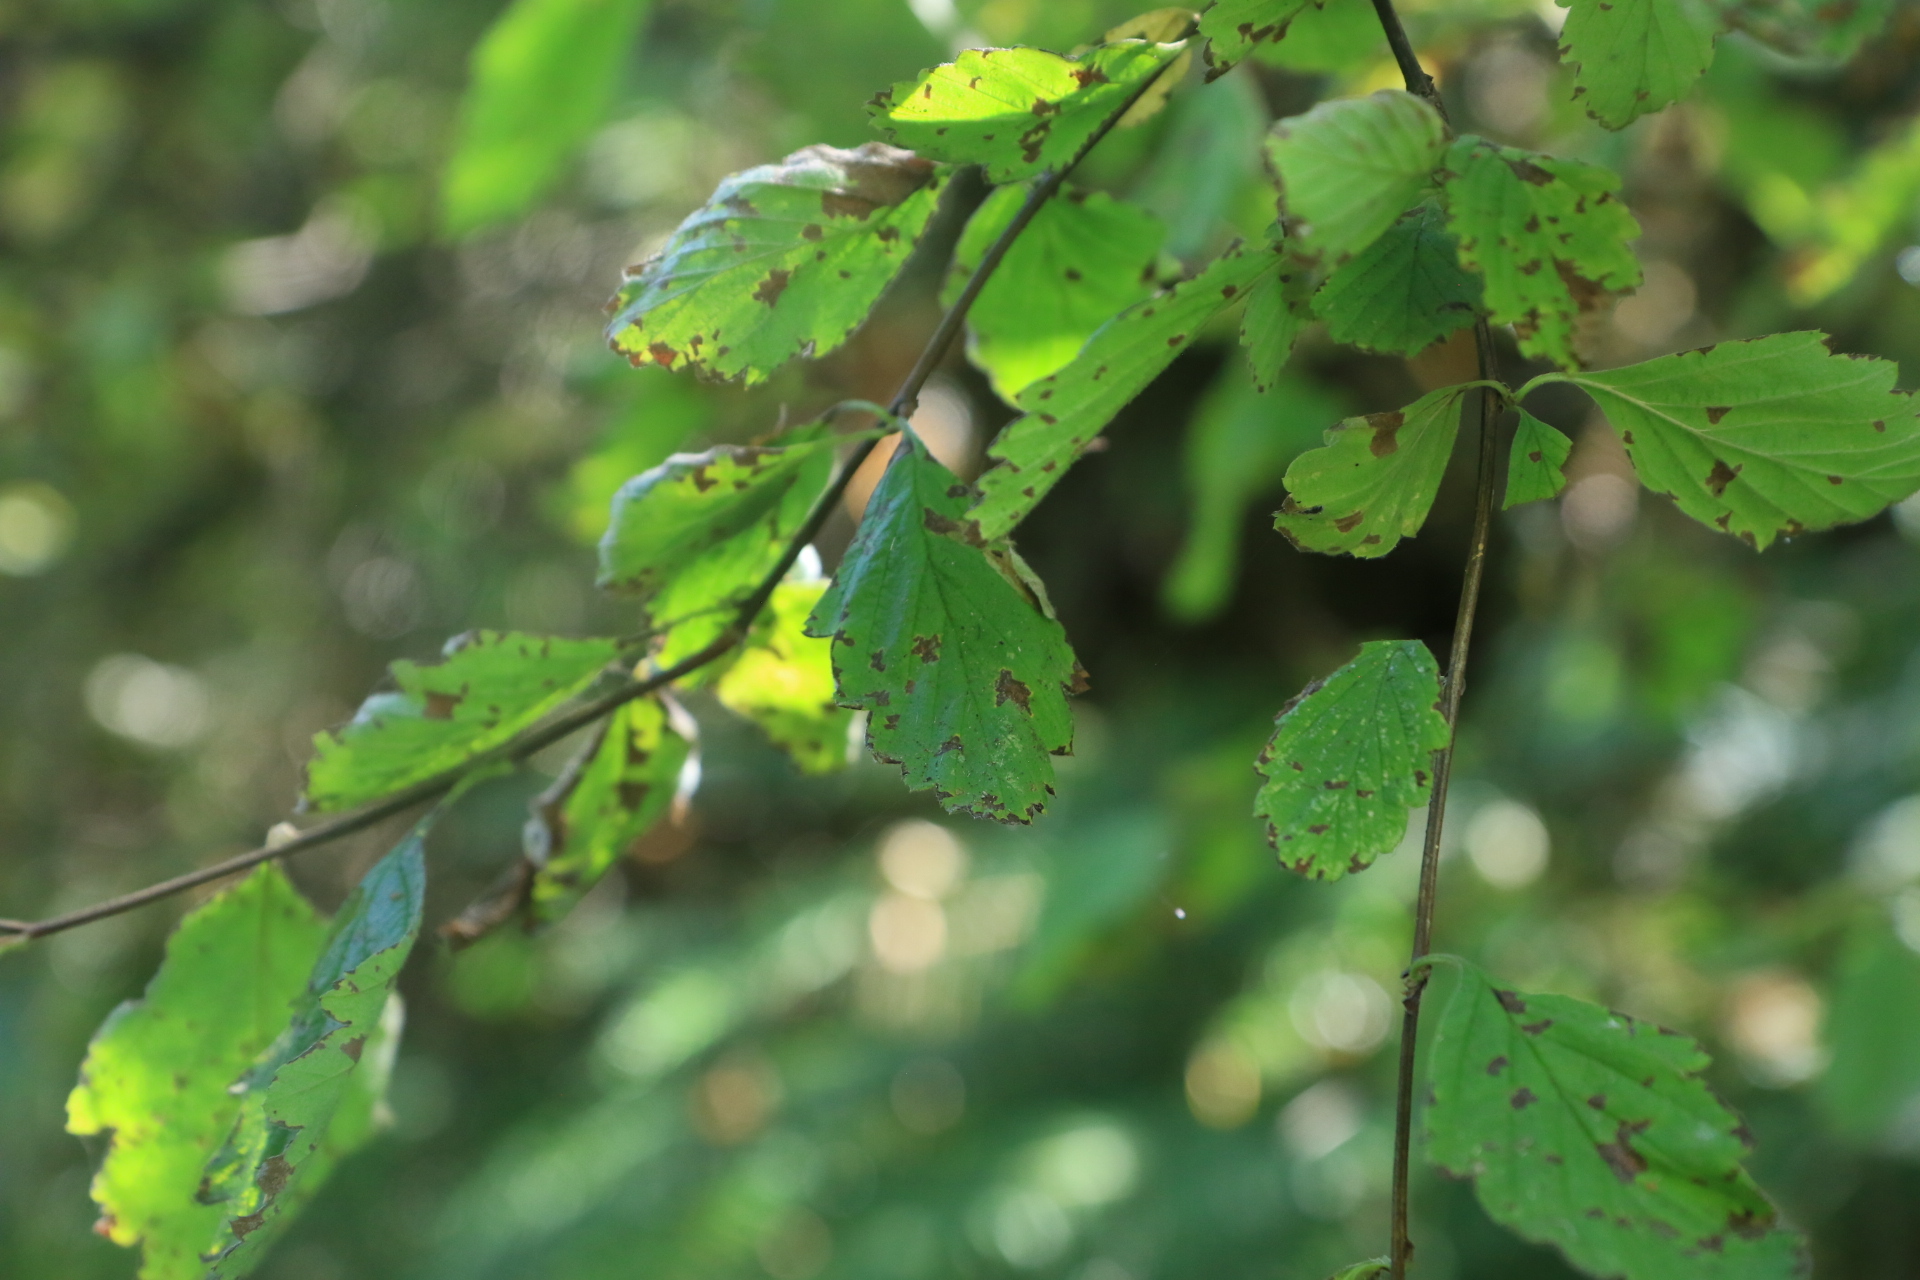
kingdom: Plantae
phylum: Tracheophyta
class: Magnoliopsida
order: Rosales
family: Rosaceae
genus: Holodiscus
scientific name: Holodiscus discolor
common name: Oceanspray
